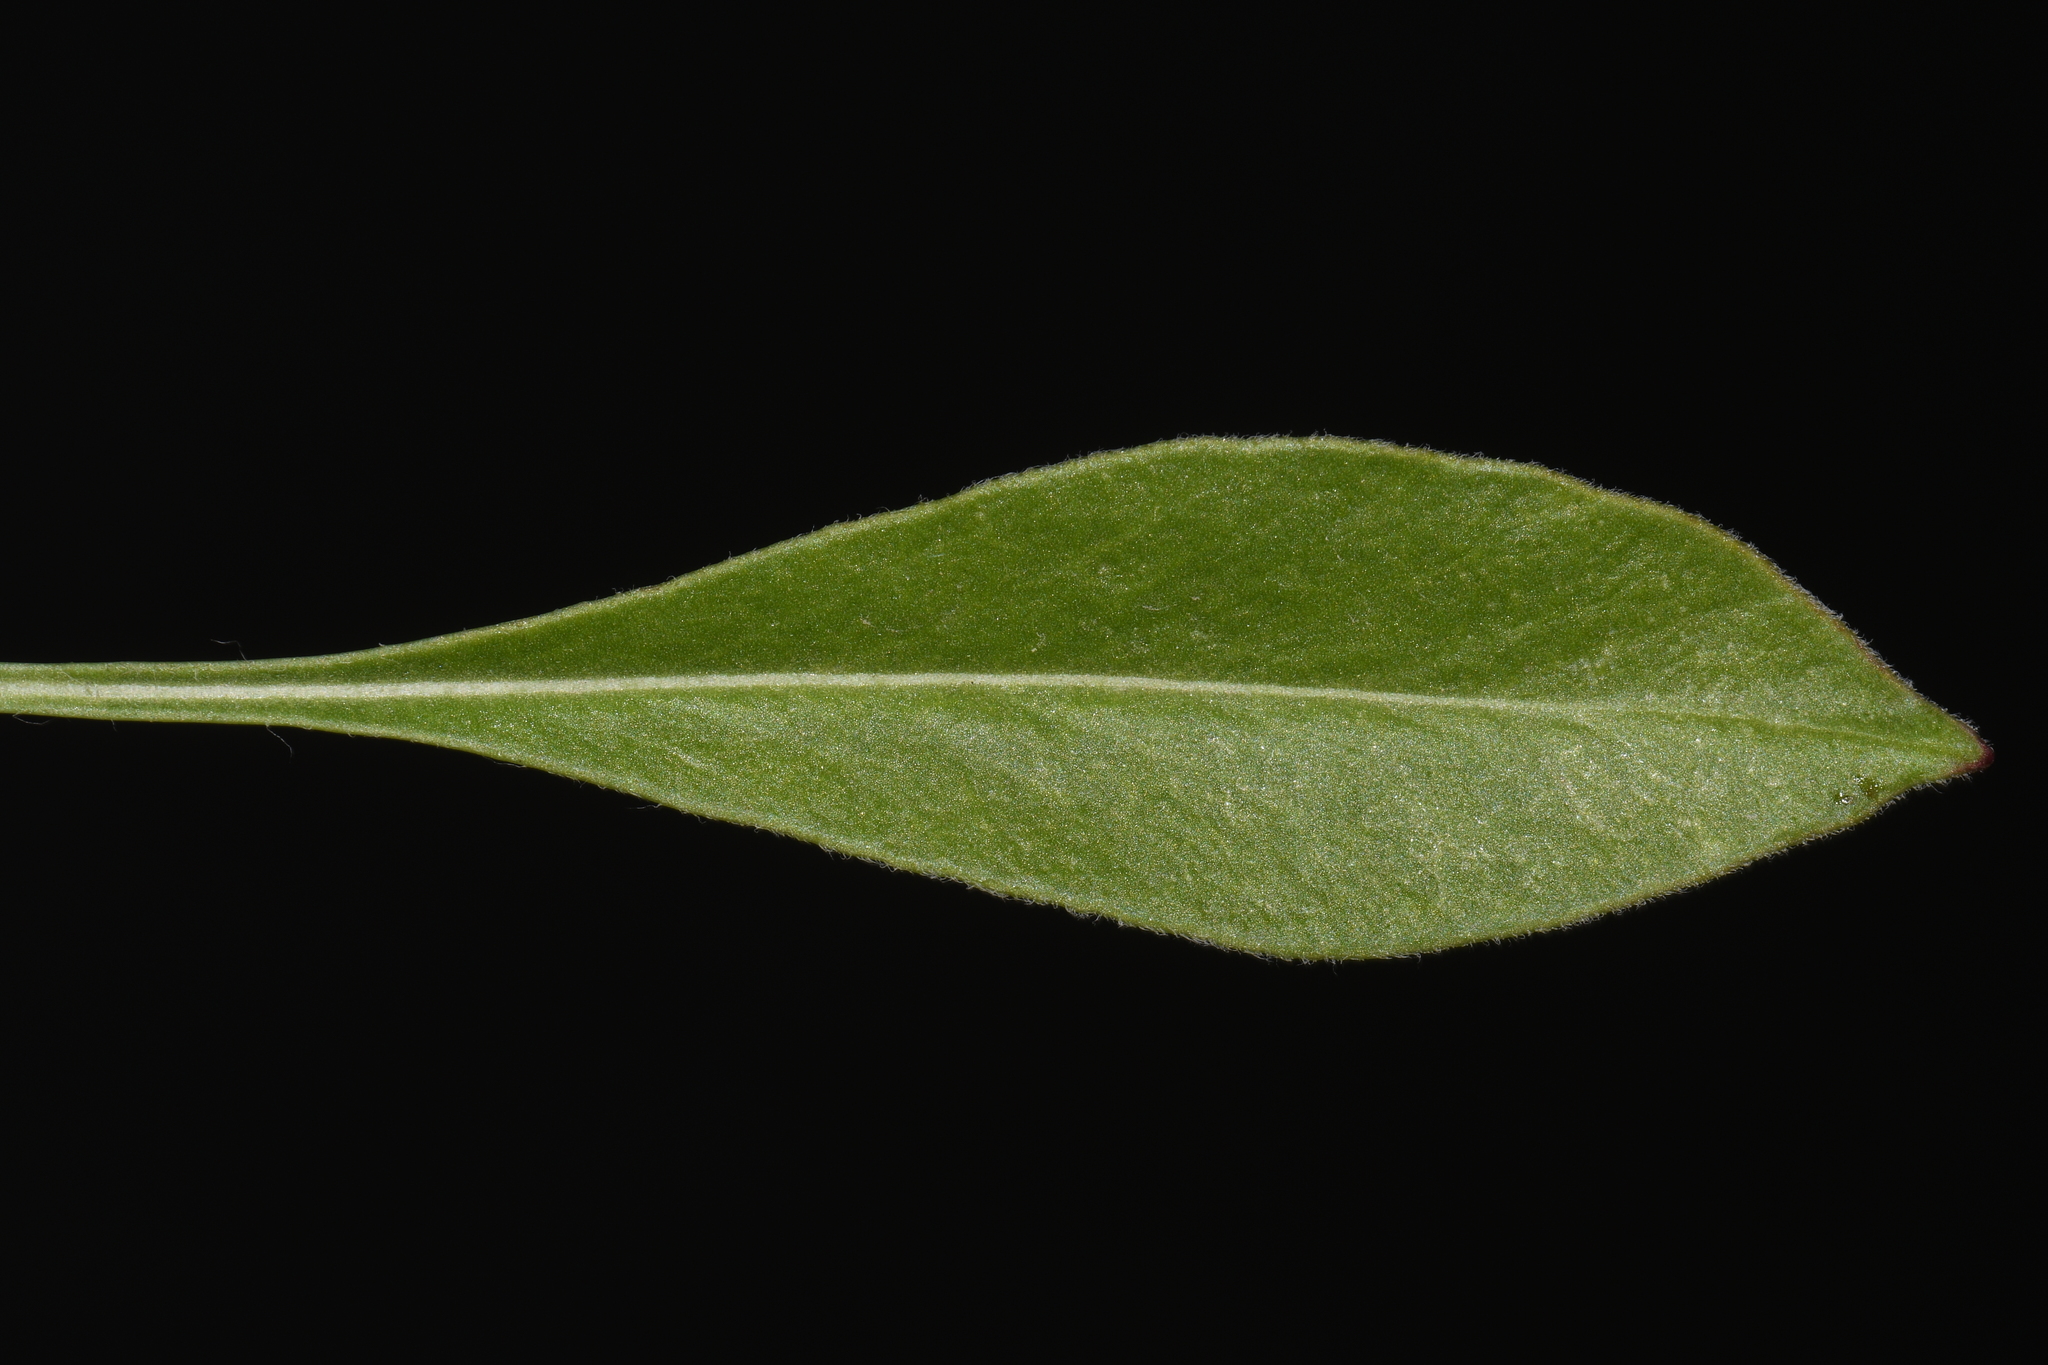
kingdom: Plantae
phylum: Tracheophyta
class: Magnoliopsida
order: Asterales
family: Asteraceae
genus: Coreopsis
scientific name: Coreopsis lanceolata
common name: Garden coreopsis
